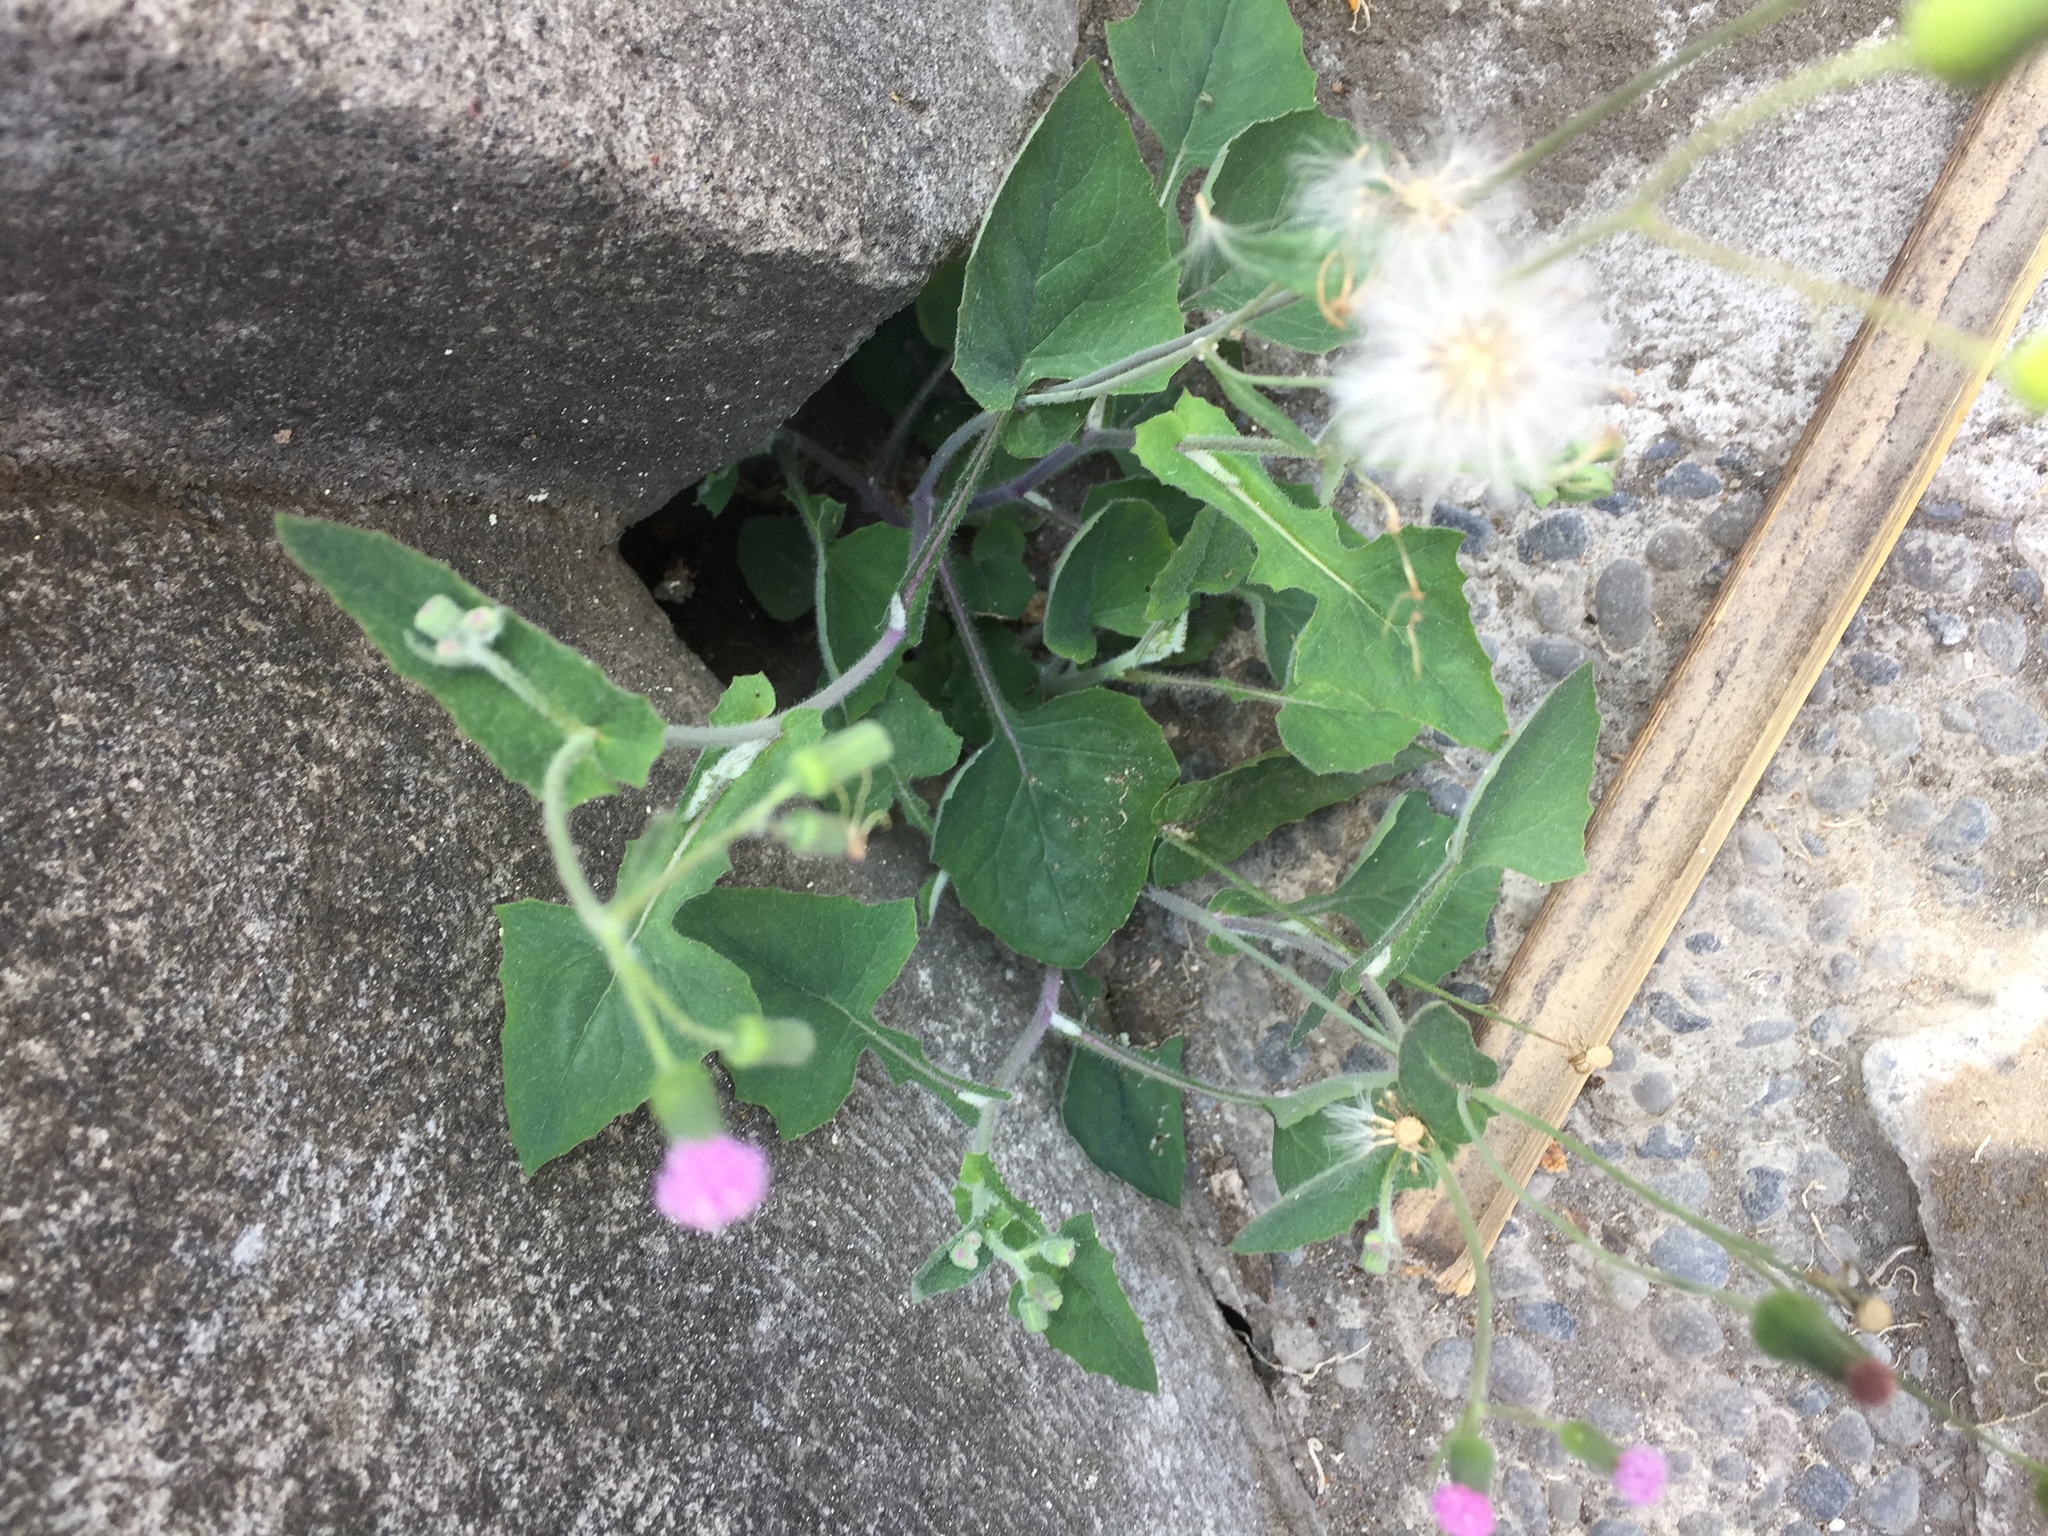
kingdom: Plantae
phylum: Tracheophyta
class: Magnoliopsida
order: Asterales
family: Asteraceae
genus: Emilia
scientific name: Emilia sonchifolia
